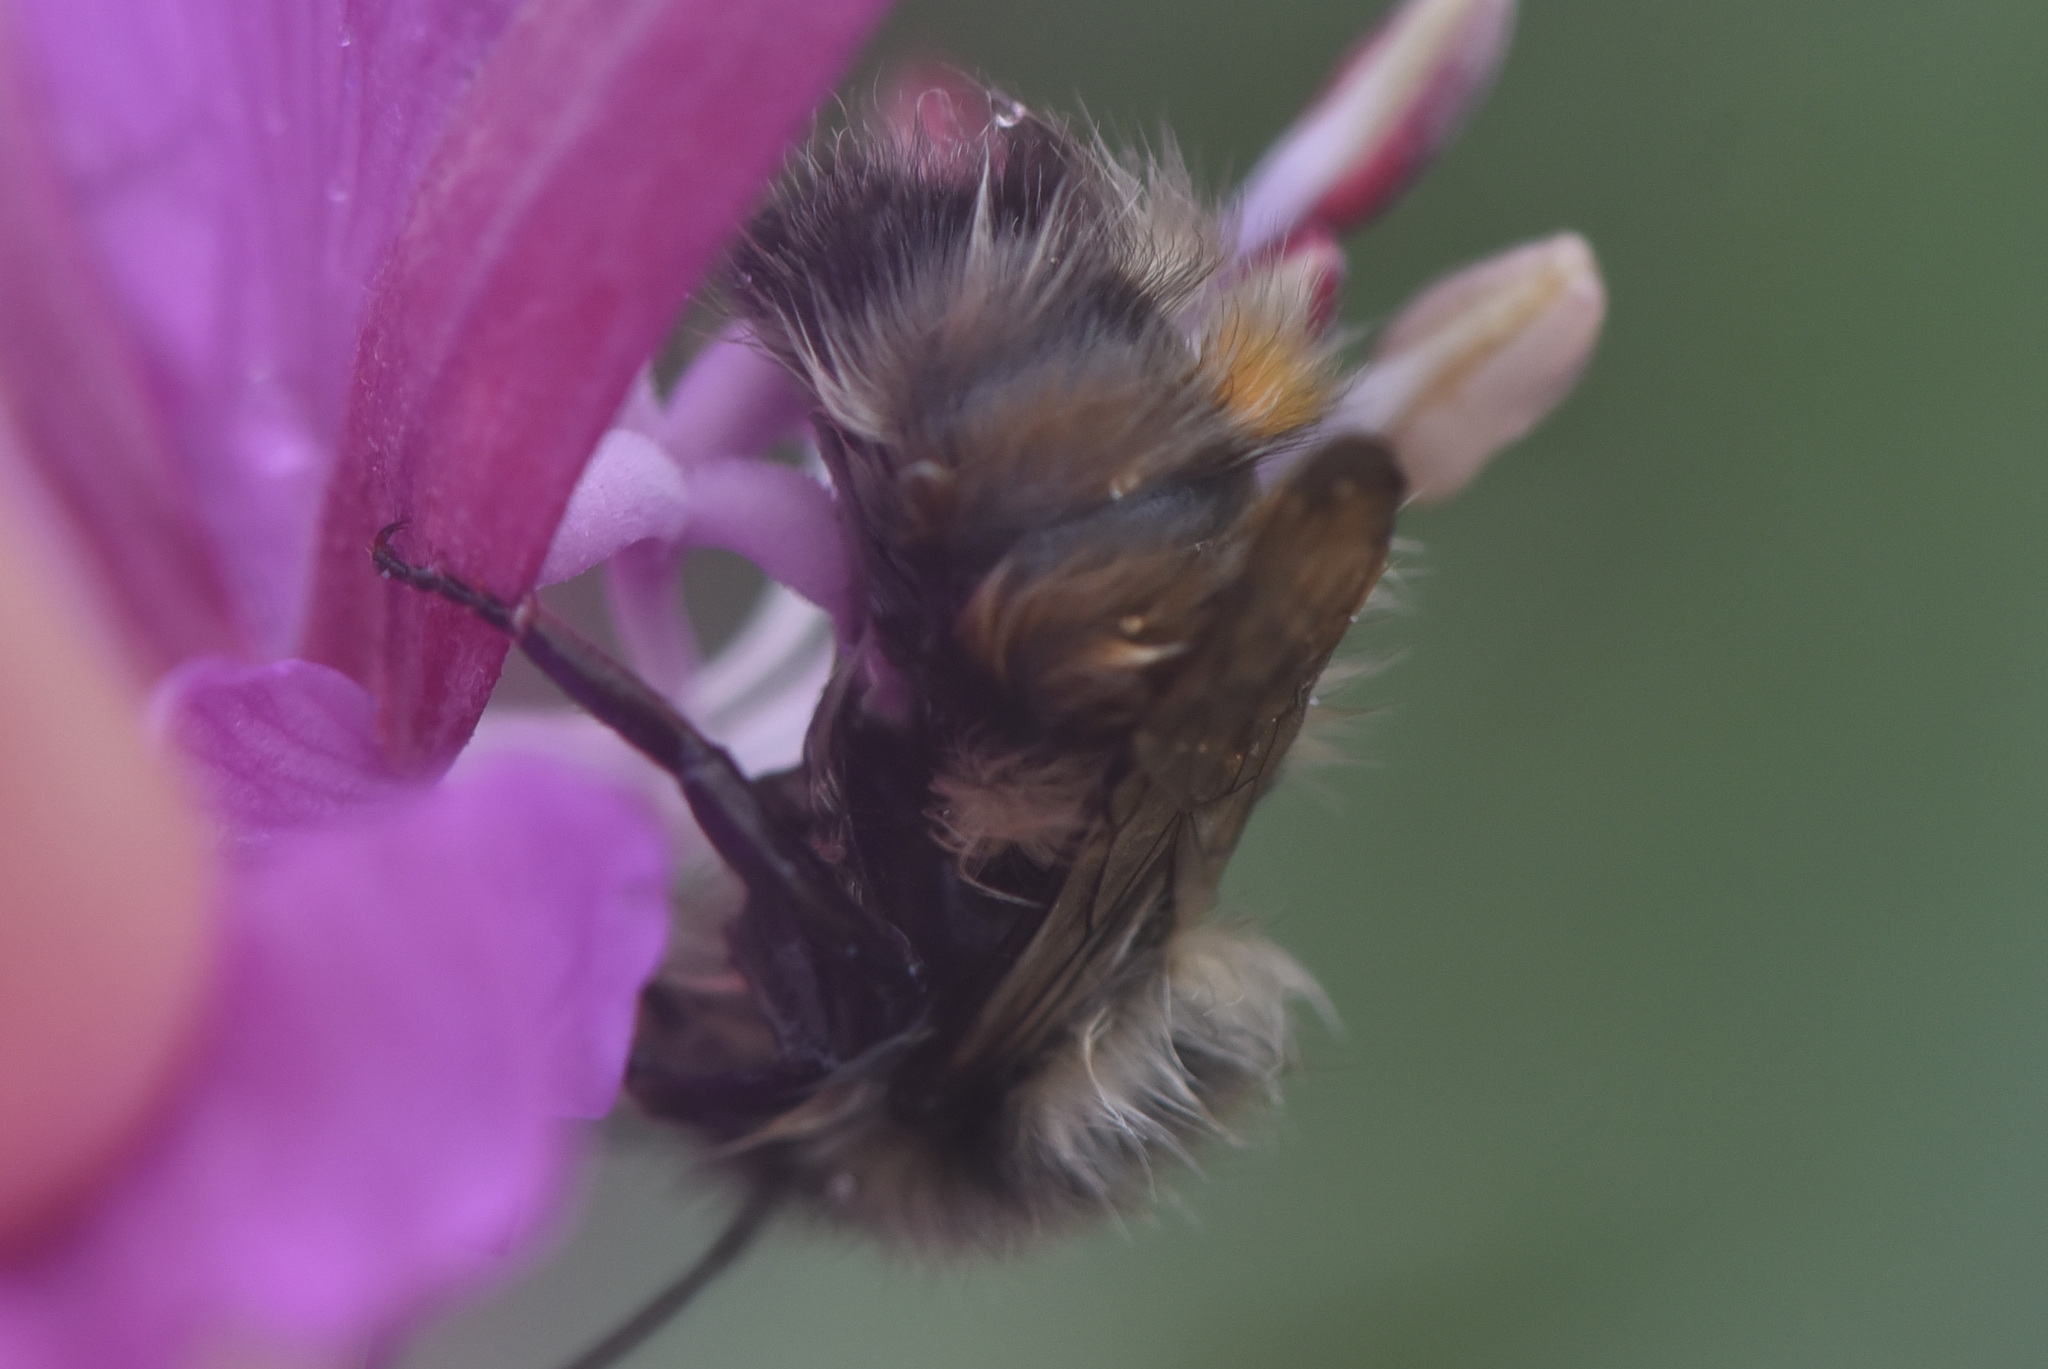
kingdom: Animalia
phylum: Arthropoda
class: Insecta
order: Hymenoptera
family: Apidae
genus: Bombus
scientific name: Bombus sylvicola
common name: Forest bumble bee
